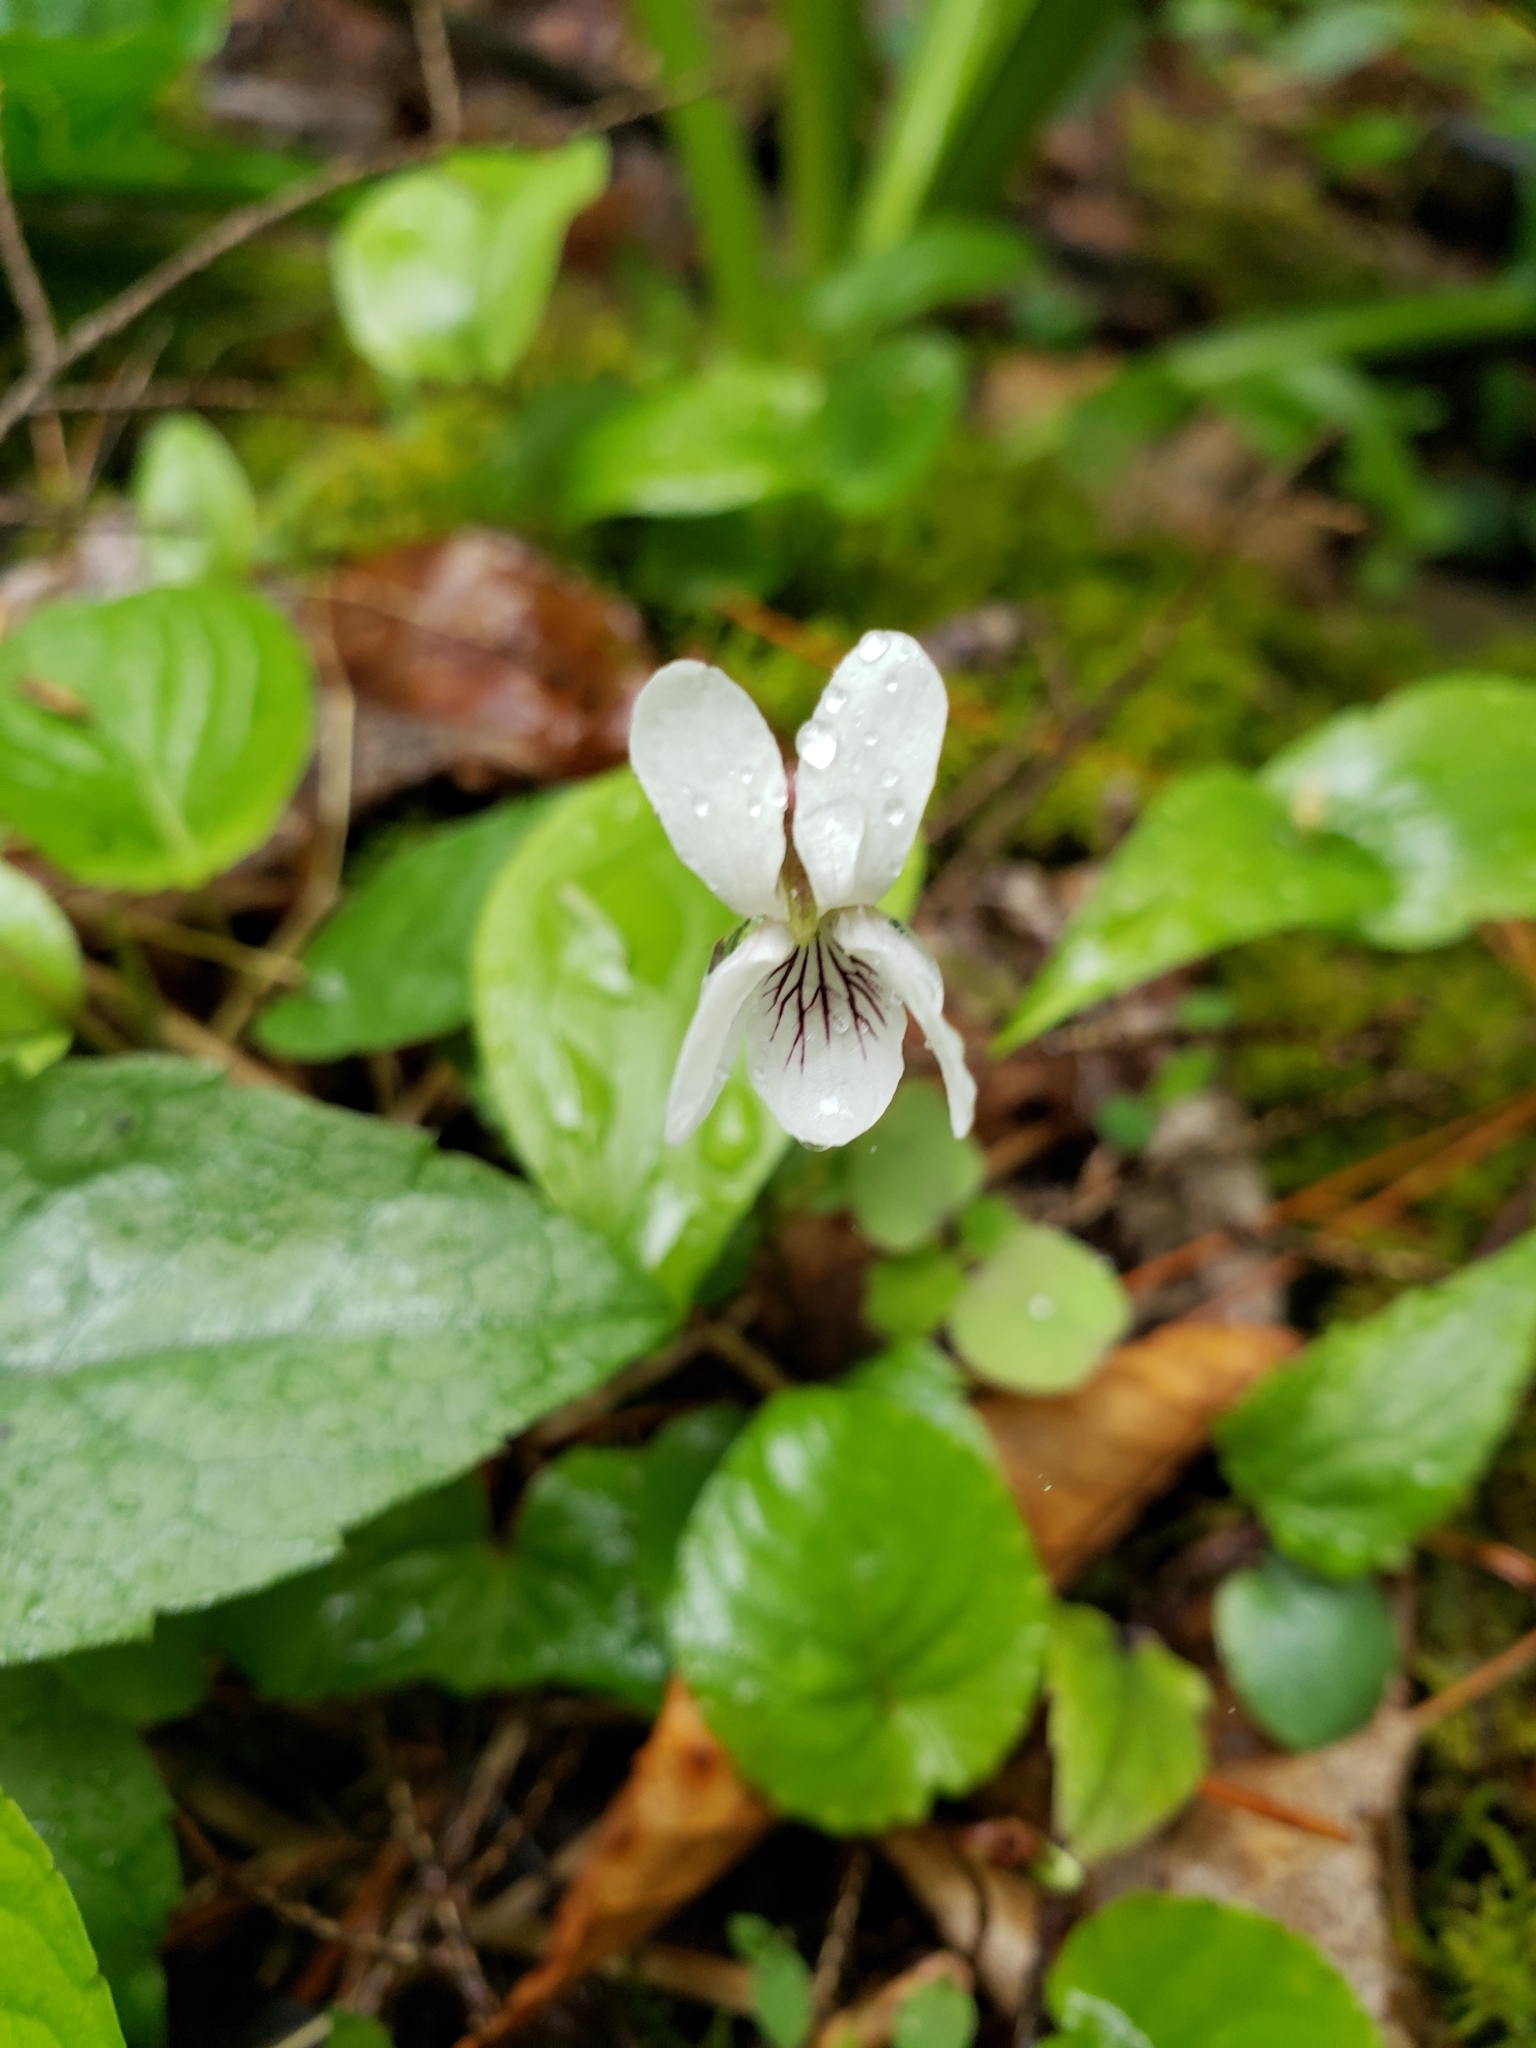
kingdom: Plantae
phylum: Tracheophyta
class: Magnoliopsida
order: Malpighiales
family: Violaceae
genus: Viola
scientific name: Viola blanda
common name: Sweet white violet
